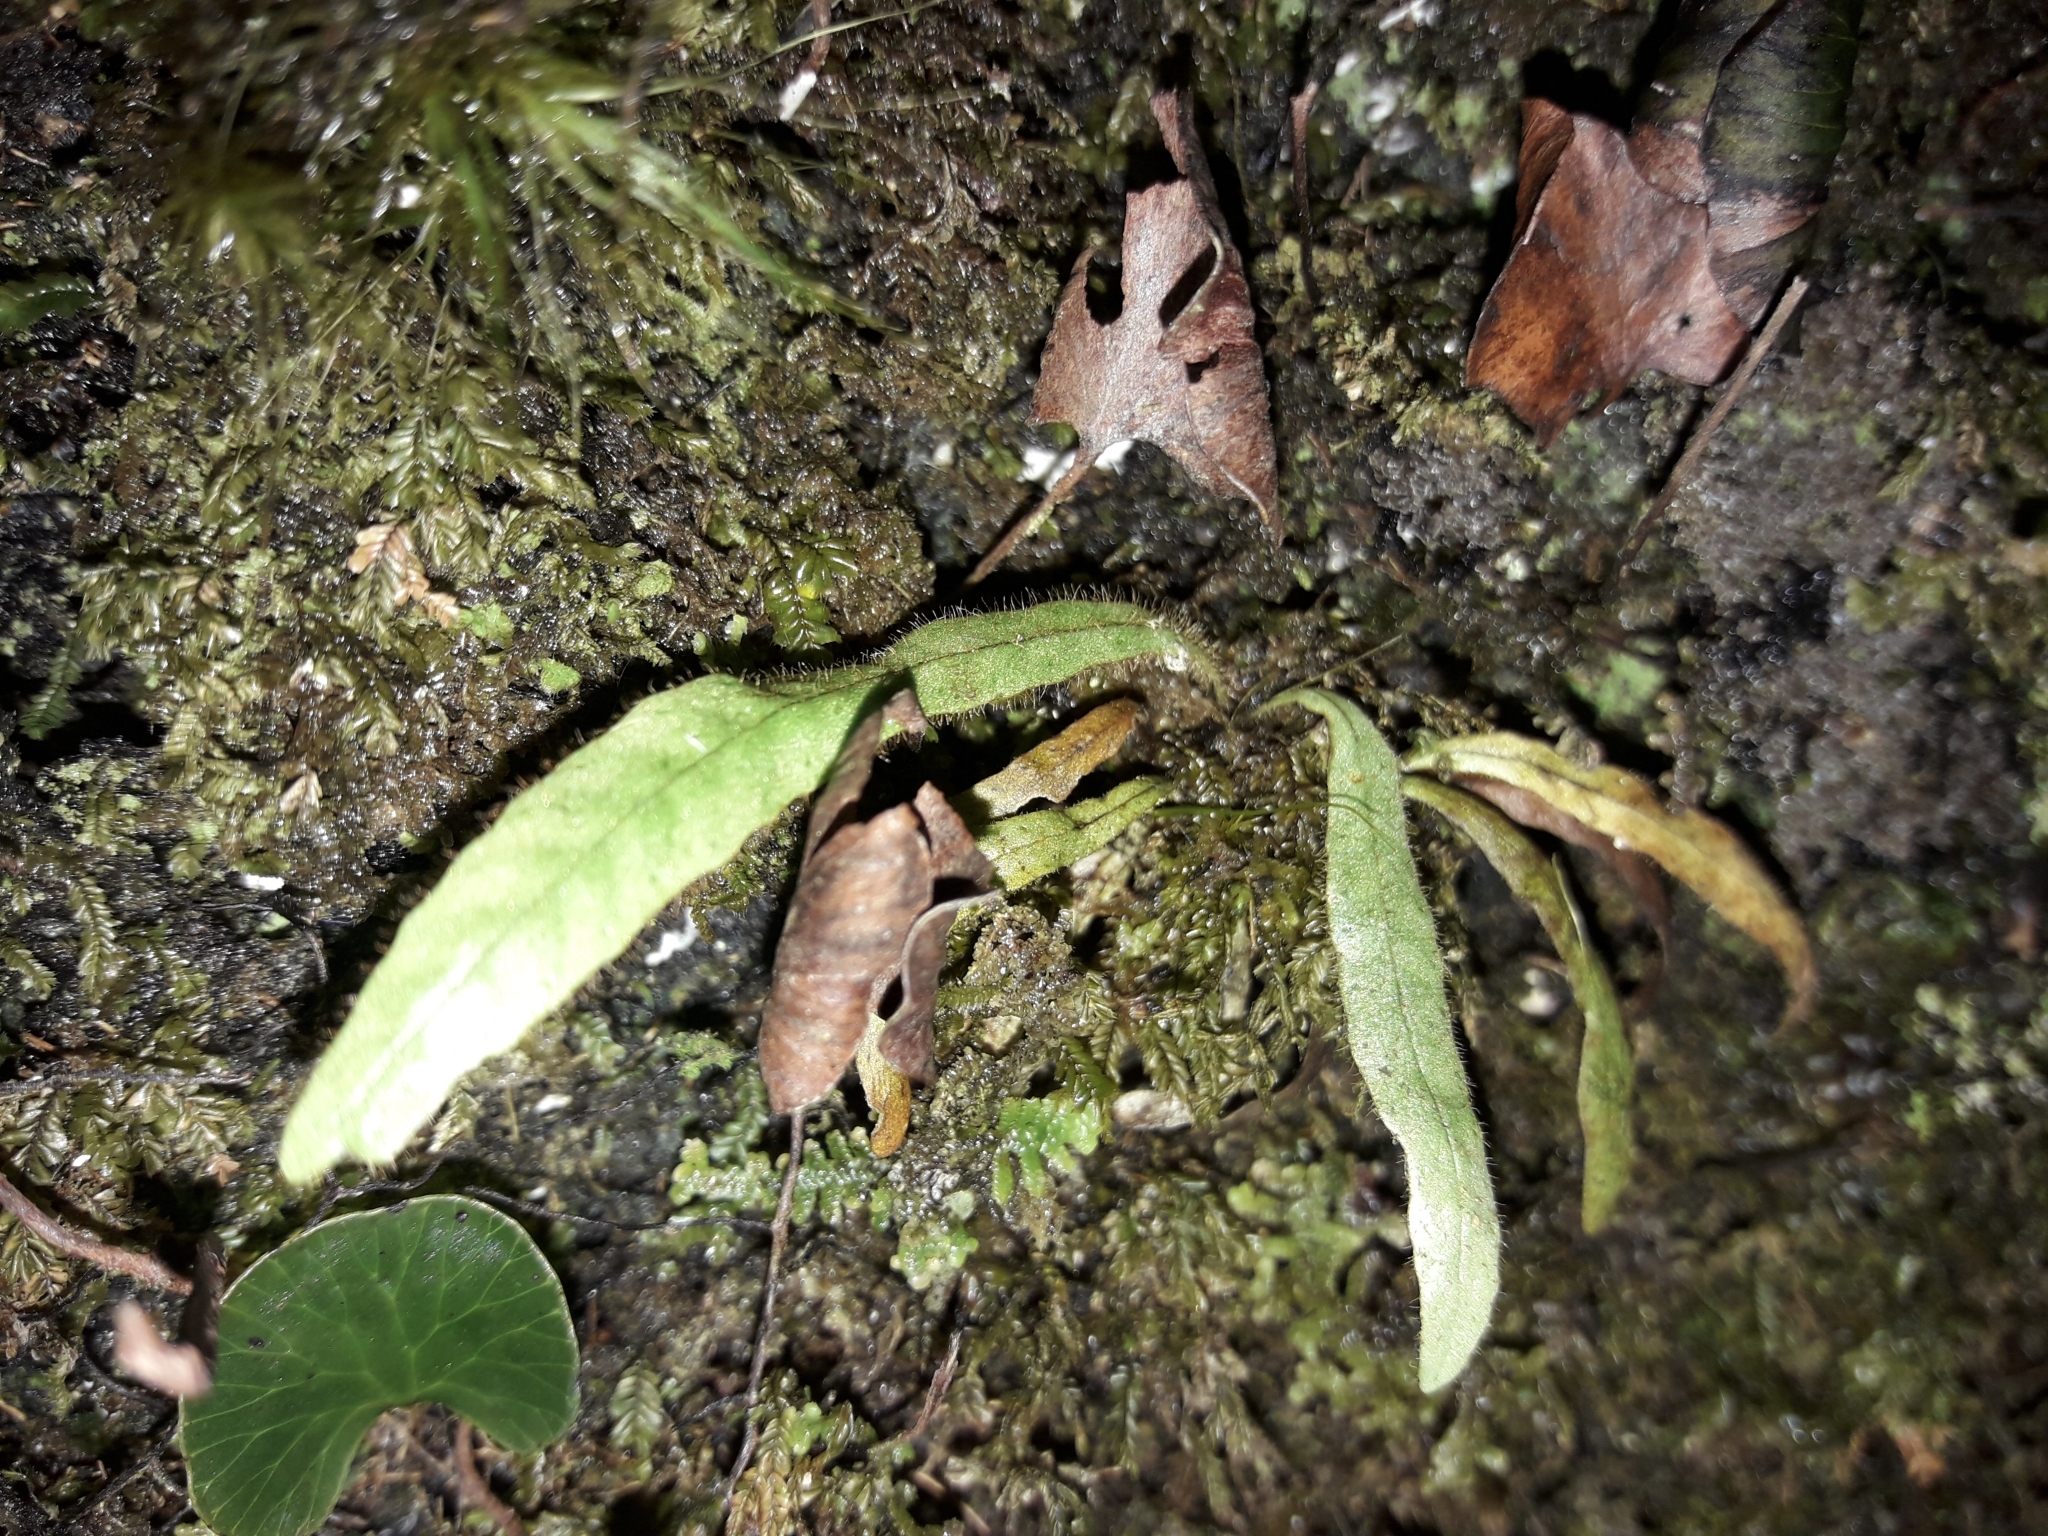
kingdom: Plantae
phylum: Tracheophyta
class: Polypodiopsida
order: Polypodiales
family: Polypodiaceae
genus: Notogrammitis
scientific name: Notogrammitis pseudociliata
